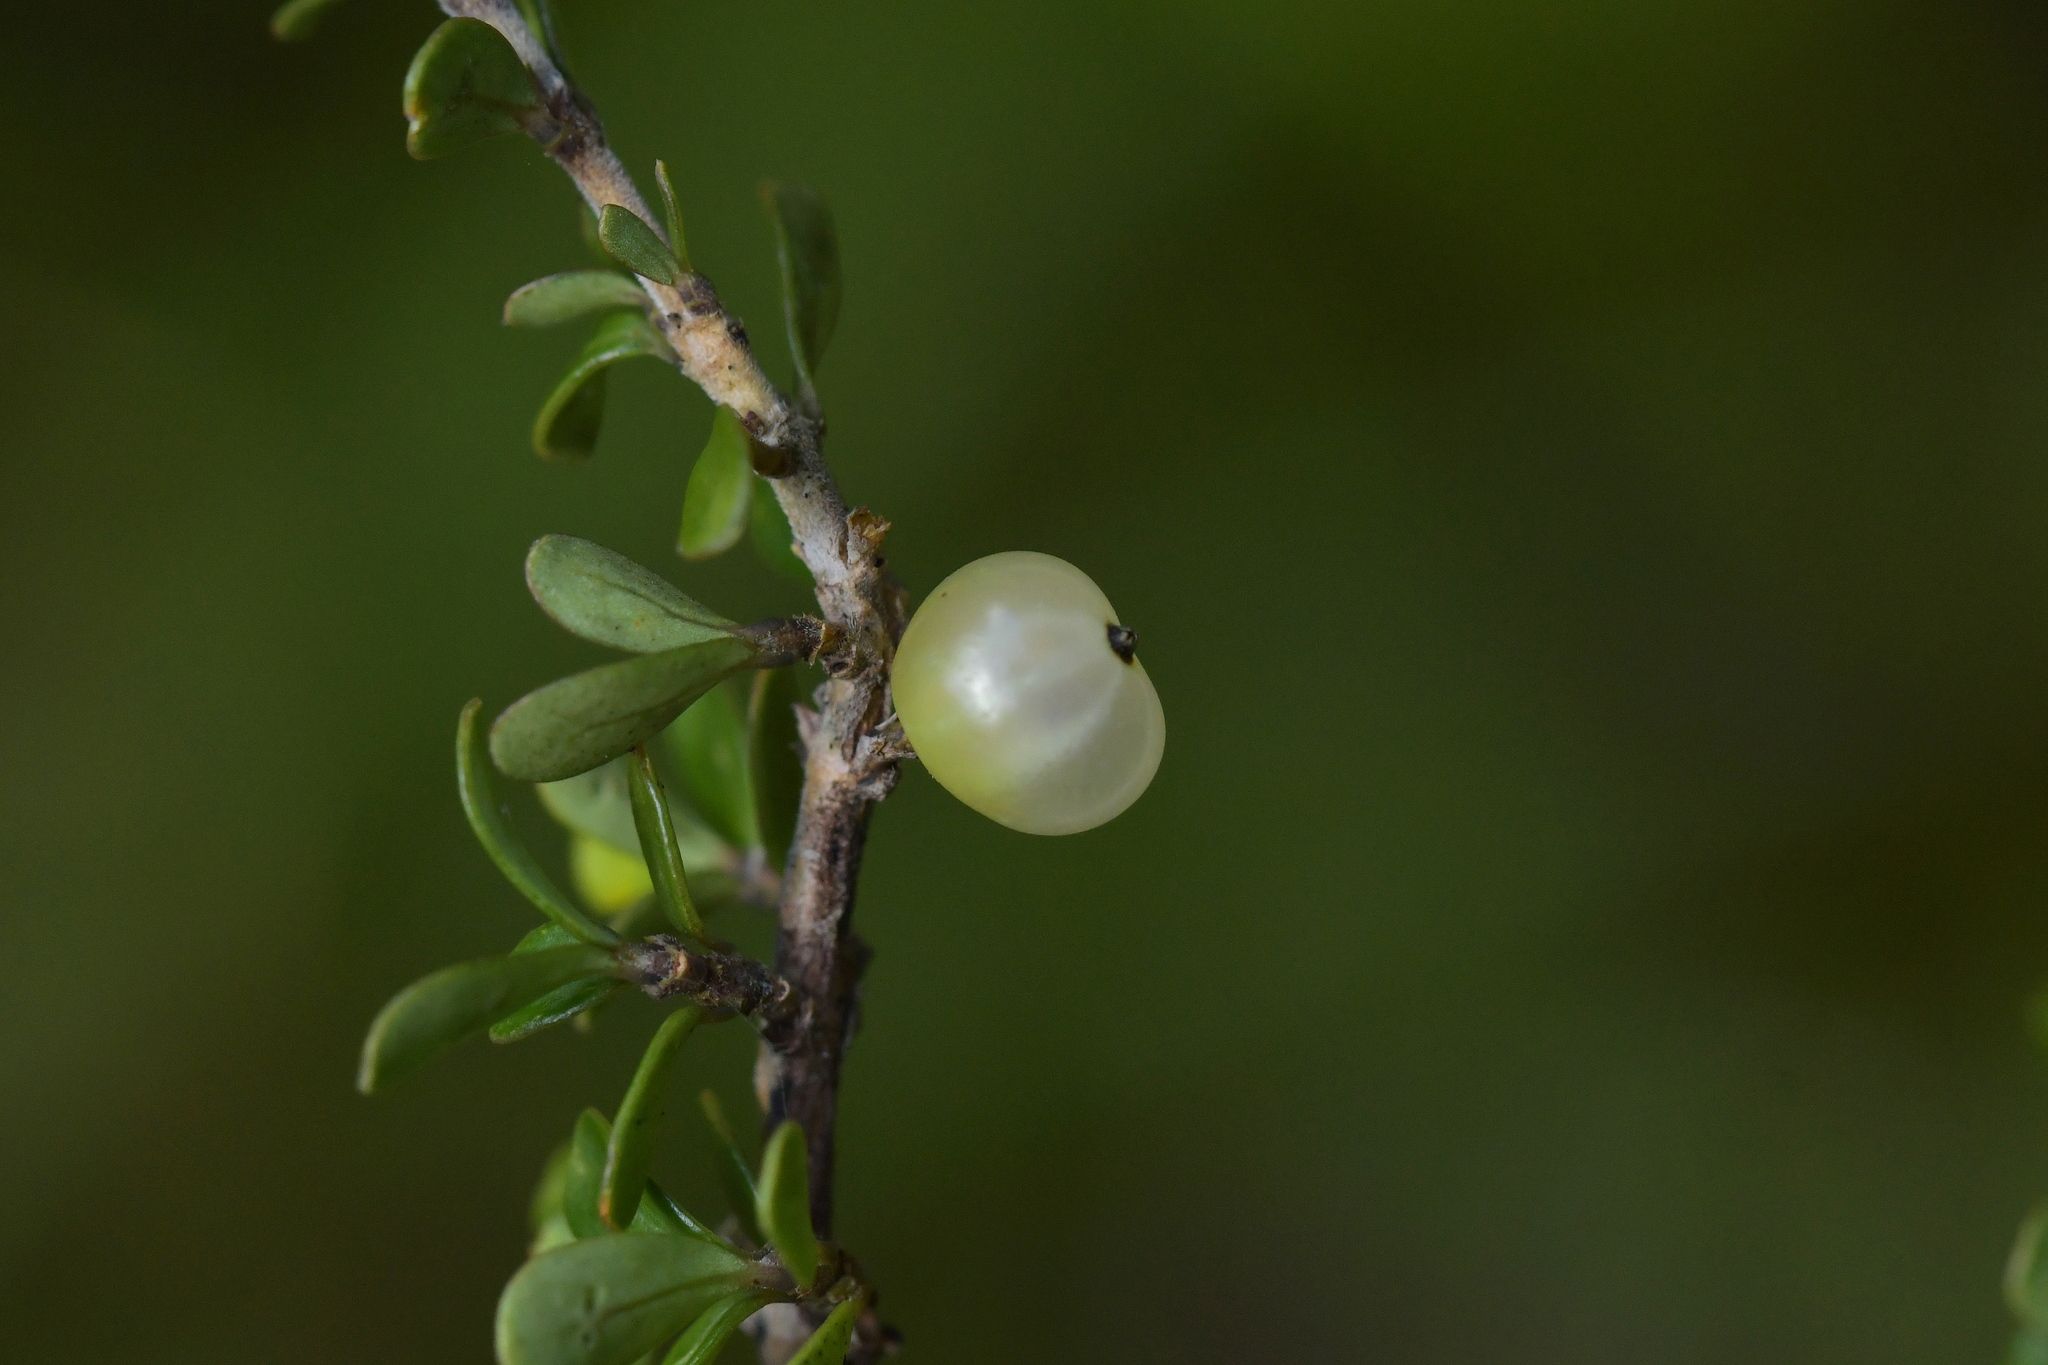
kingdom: Plantae
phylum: Tracheophyta
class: Magnoliopsida
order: Gentianales
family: Rubiaceae
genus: Coprosma
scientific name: Coprosma dumosa
